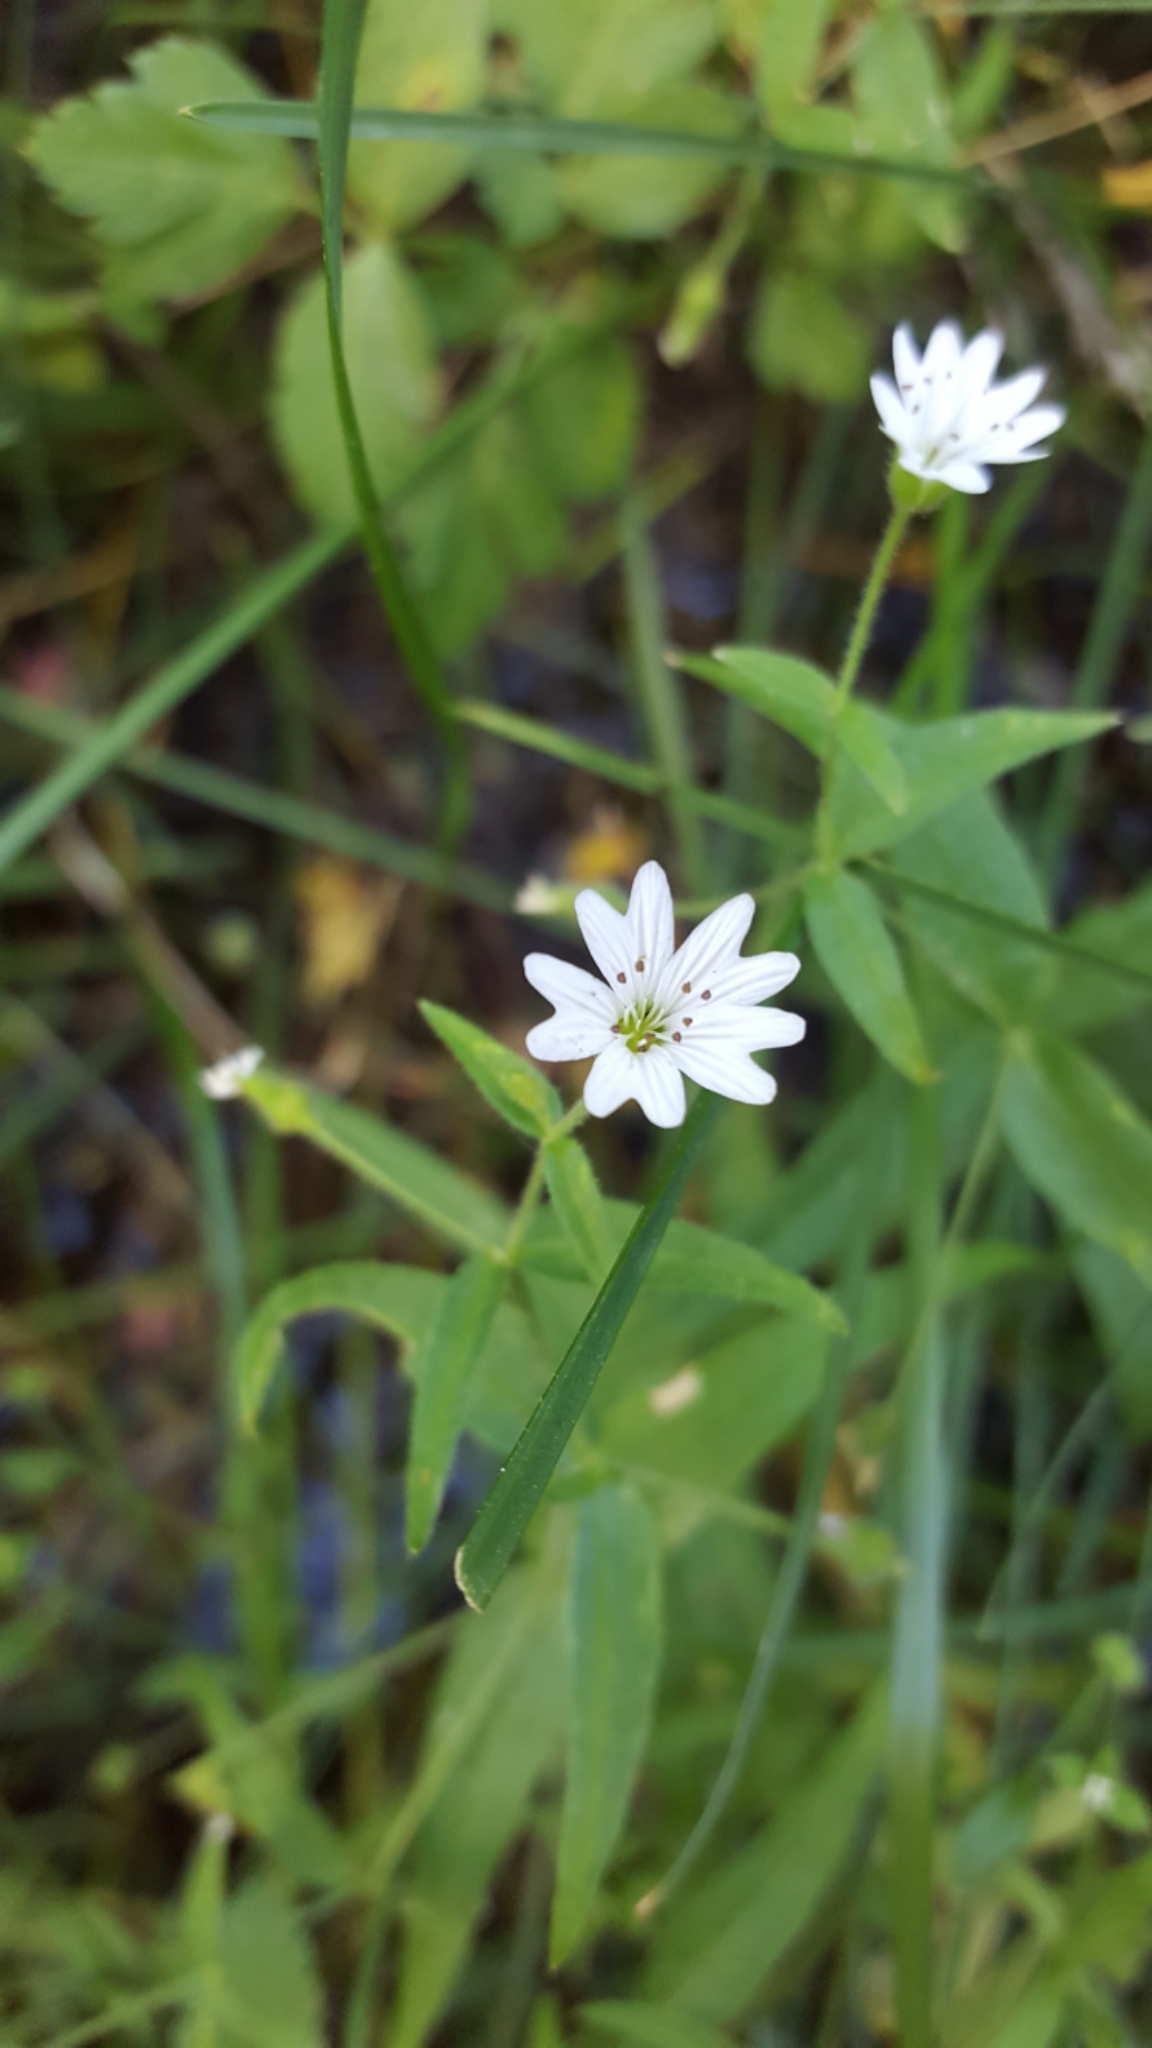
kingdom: Plantae
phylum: Tracheophyta
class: Magnoliopsida
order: Caryophyllales
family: Caryophyllaceae
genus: Schizotechium
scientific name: Schizotechium jamesianum
